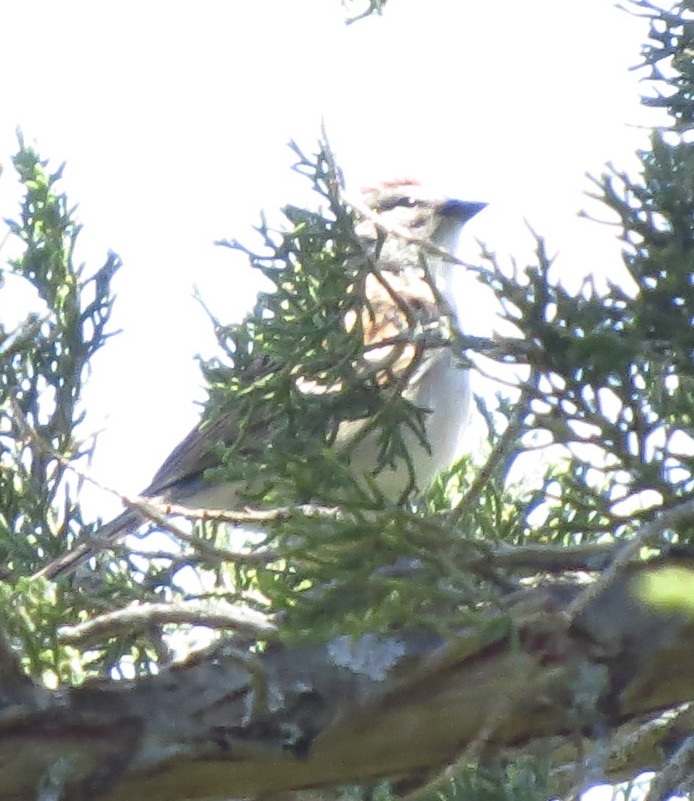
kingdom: Animalia
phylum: Chordata
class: Aves
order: Passeriformes
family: Passerellidae
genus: Spizella
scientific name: Spizella passerina
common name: Chipping sparrow
